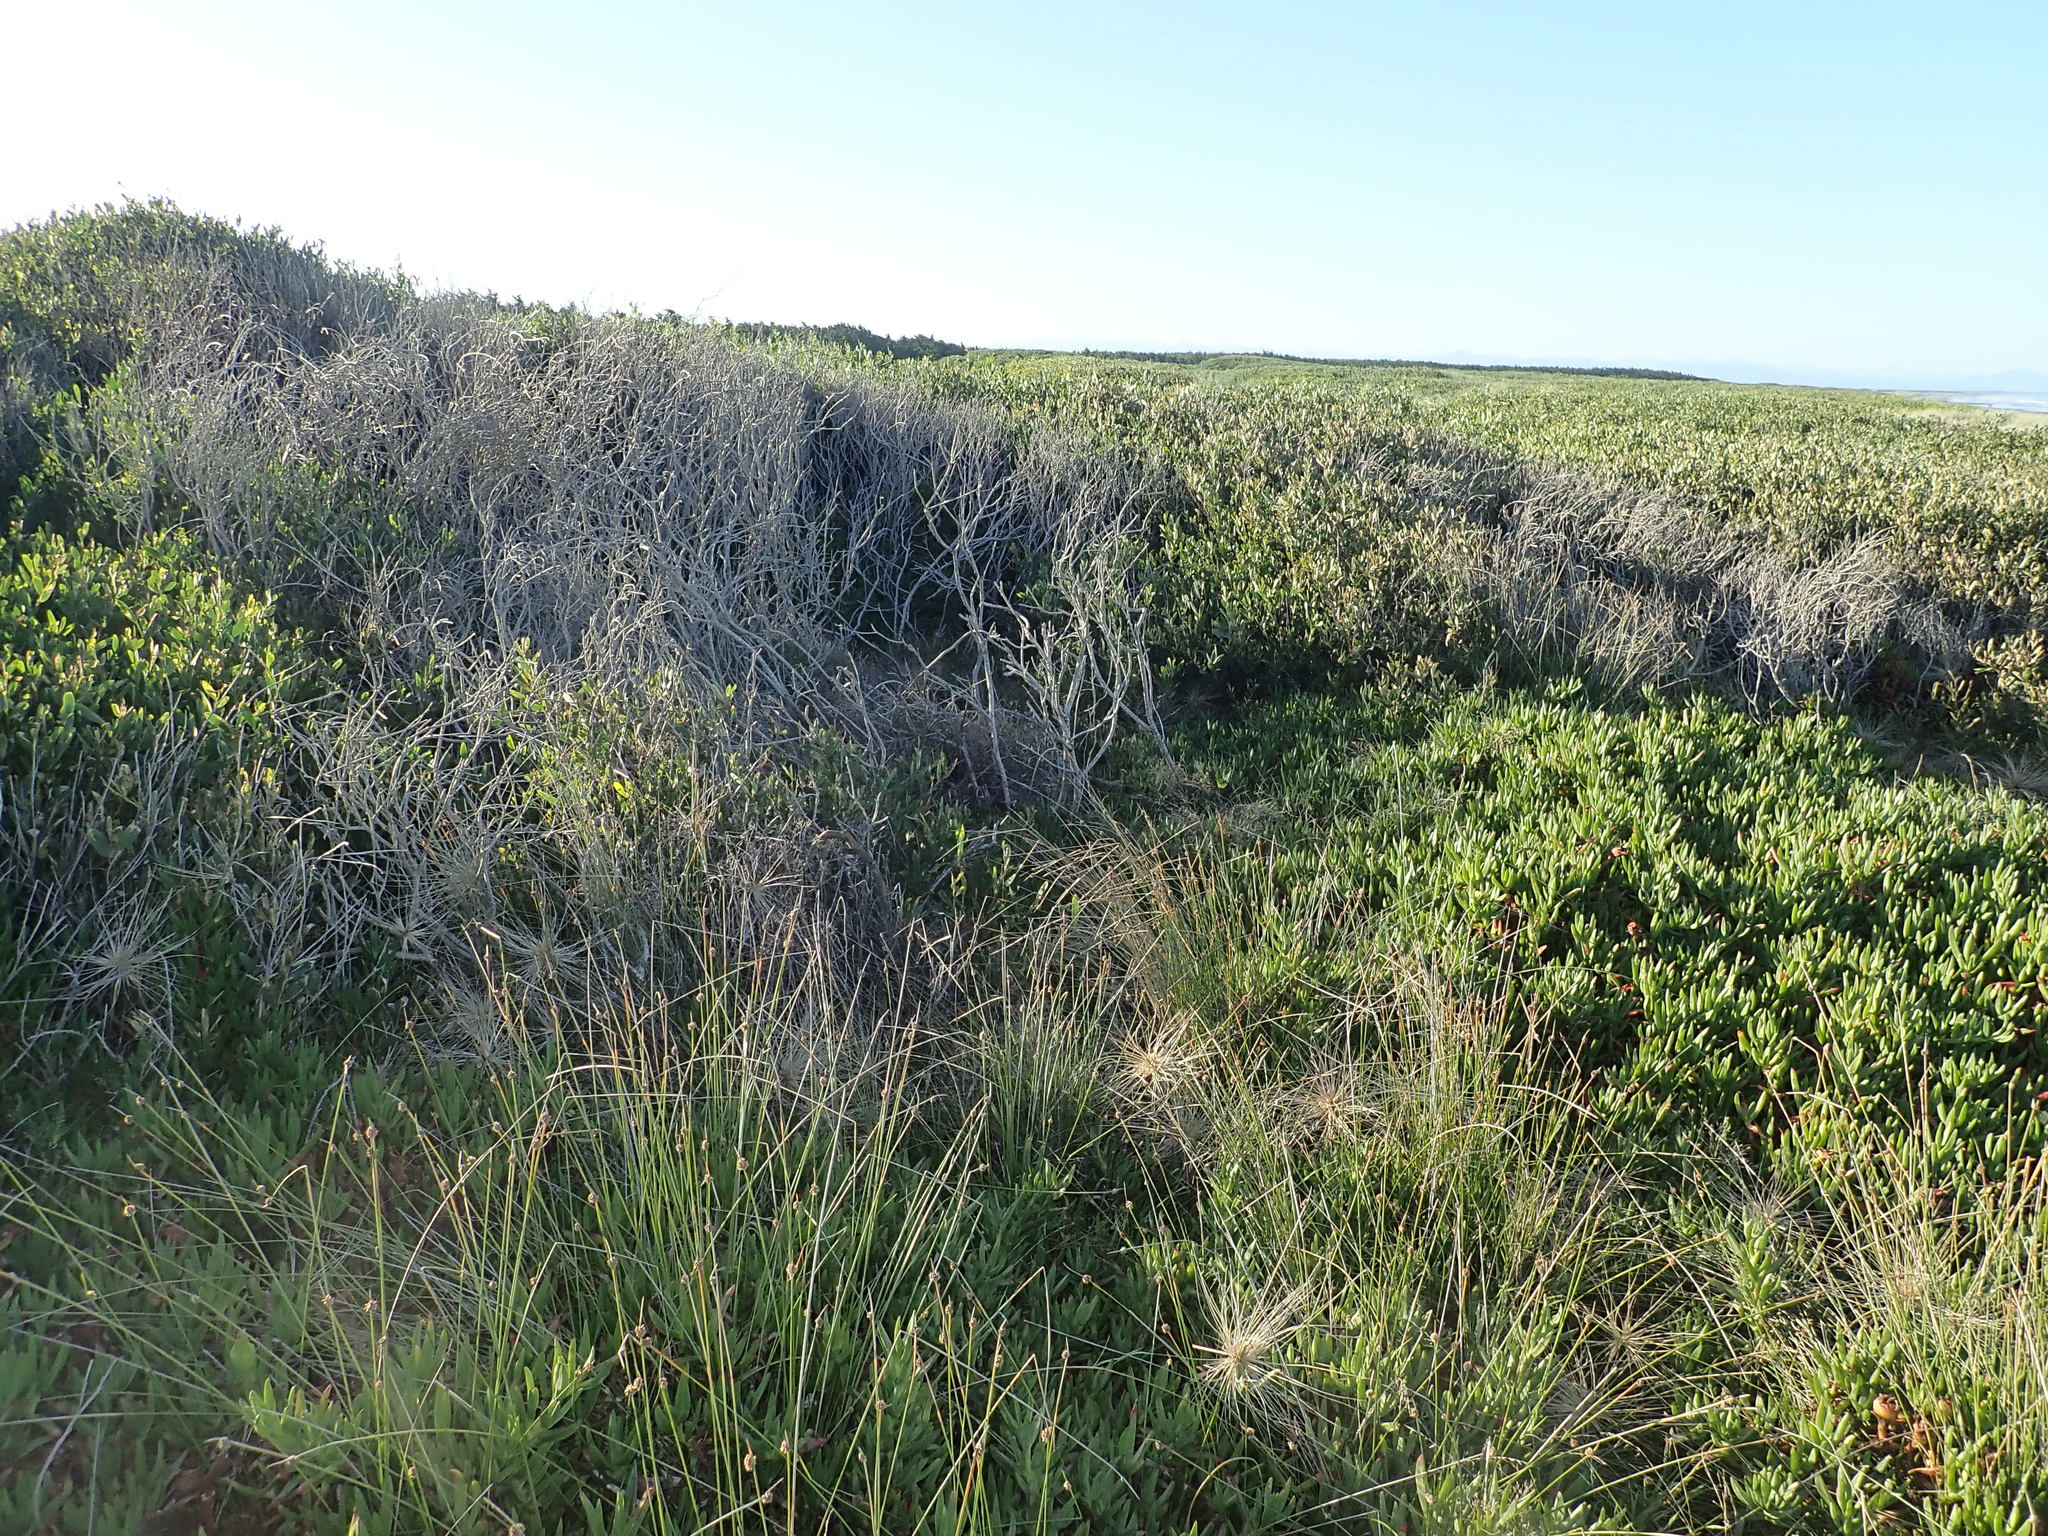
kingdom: Plantae
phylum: Tracheophyta
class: Magnoliopsida
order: Caryophyllales
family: Aizoaceae
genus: Tetragonia
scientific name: Tetragonia implexicoma
